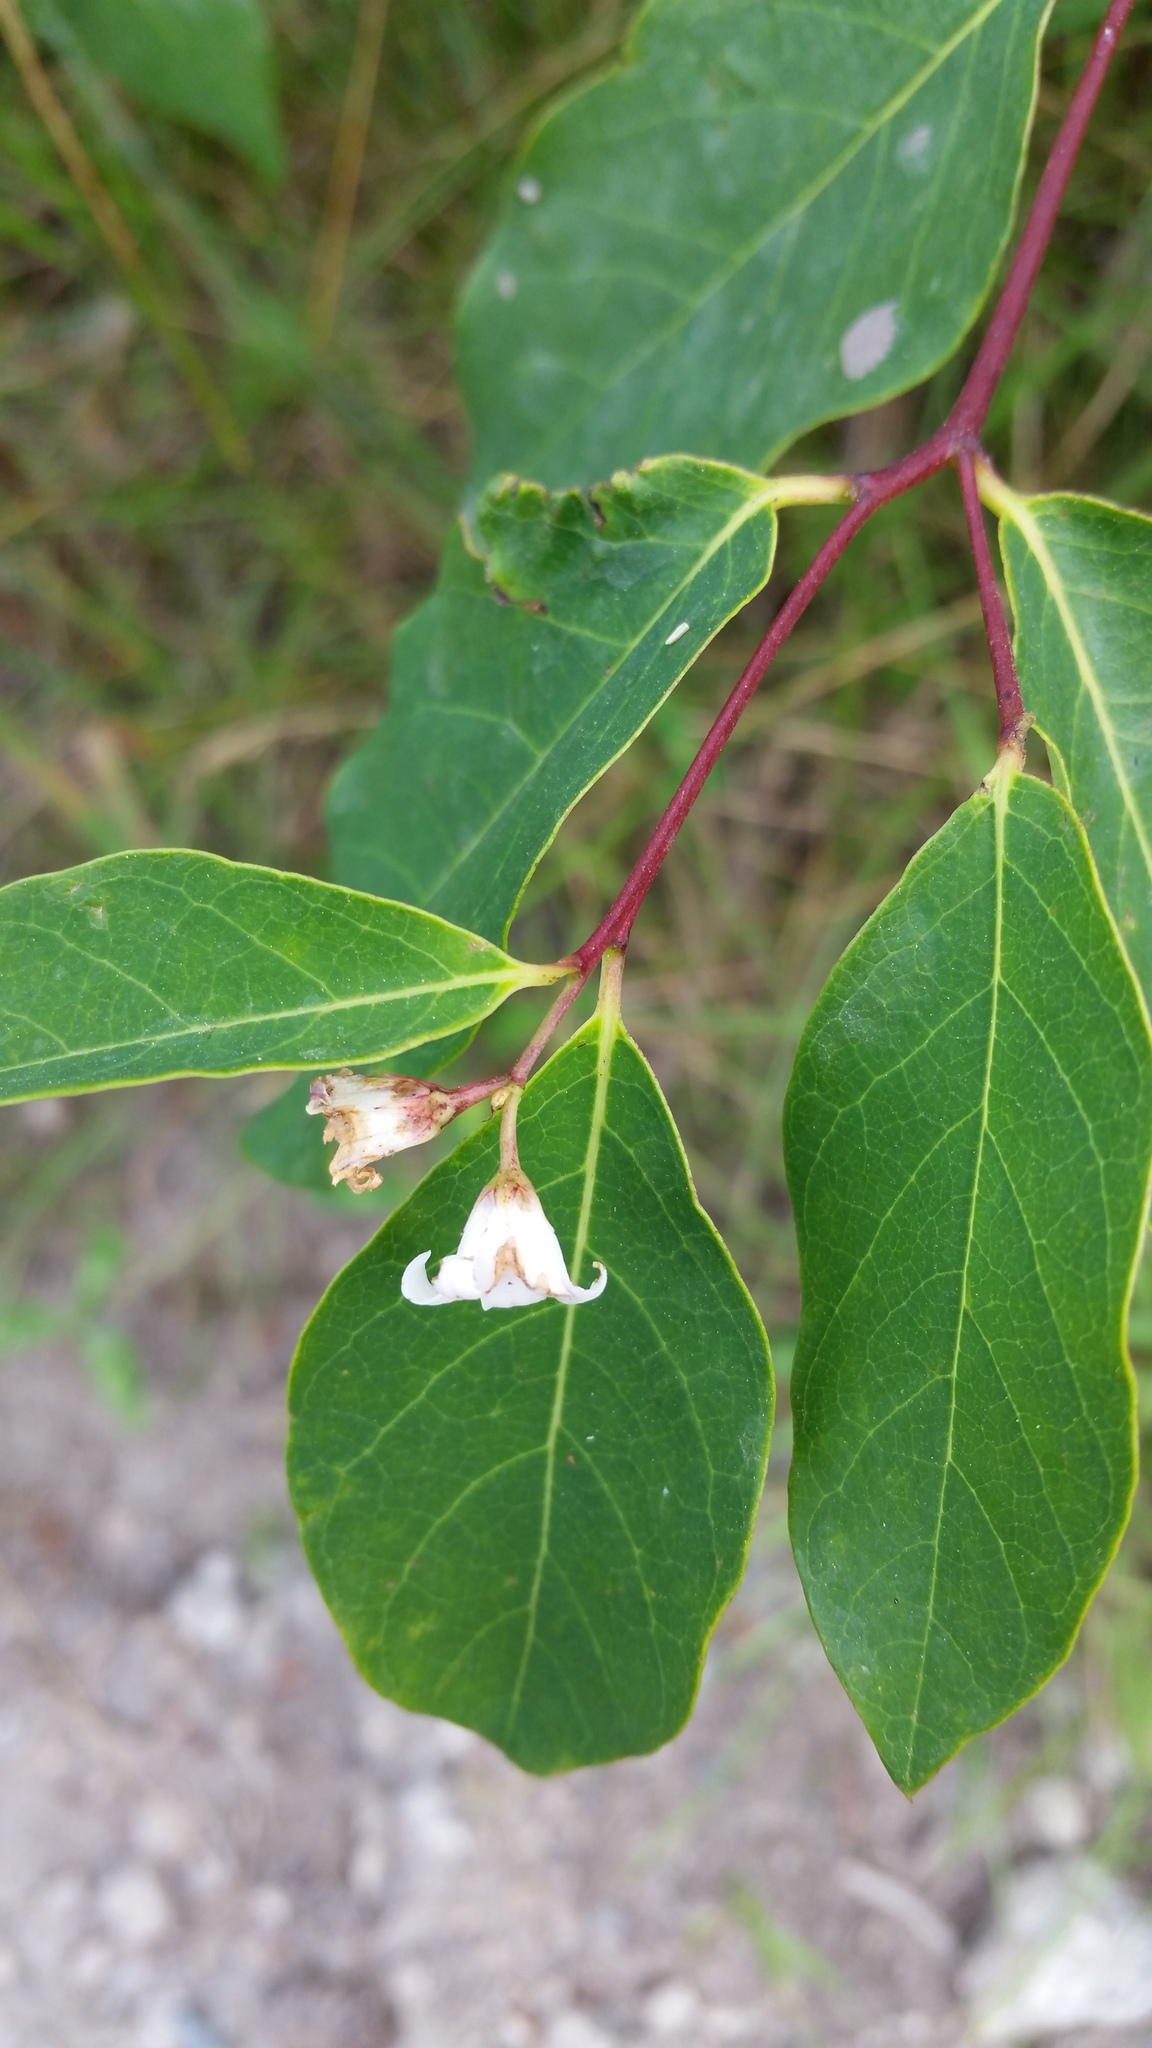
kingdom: Plantae
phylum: Tracheophyta
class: Magnoliopsida
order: Gentianales
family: Apocynaceae
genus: Apocynum
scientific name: Apocynum androsaemifolium
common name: Spreading dogbane
